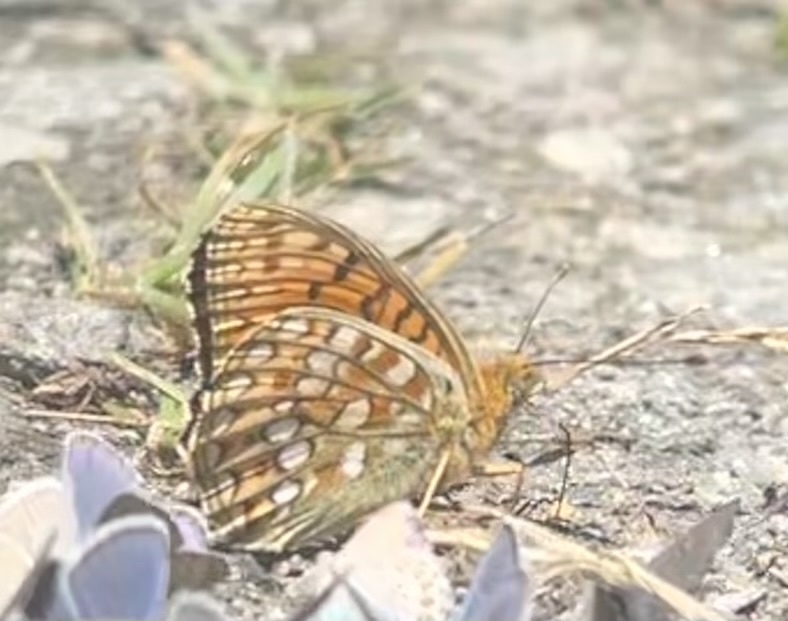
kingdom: Animalia
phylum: Arthropoda
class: Insecta
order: Lepidoptera
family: Nymphalidae
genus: Fabriciana
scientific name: Fabriciana niobe
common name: Niobe fritillary
